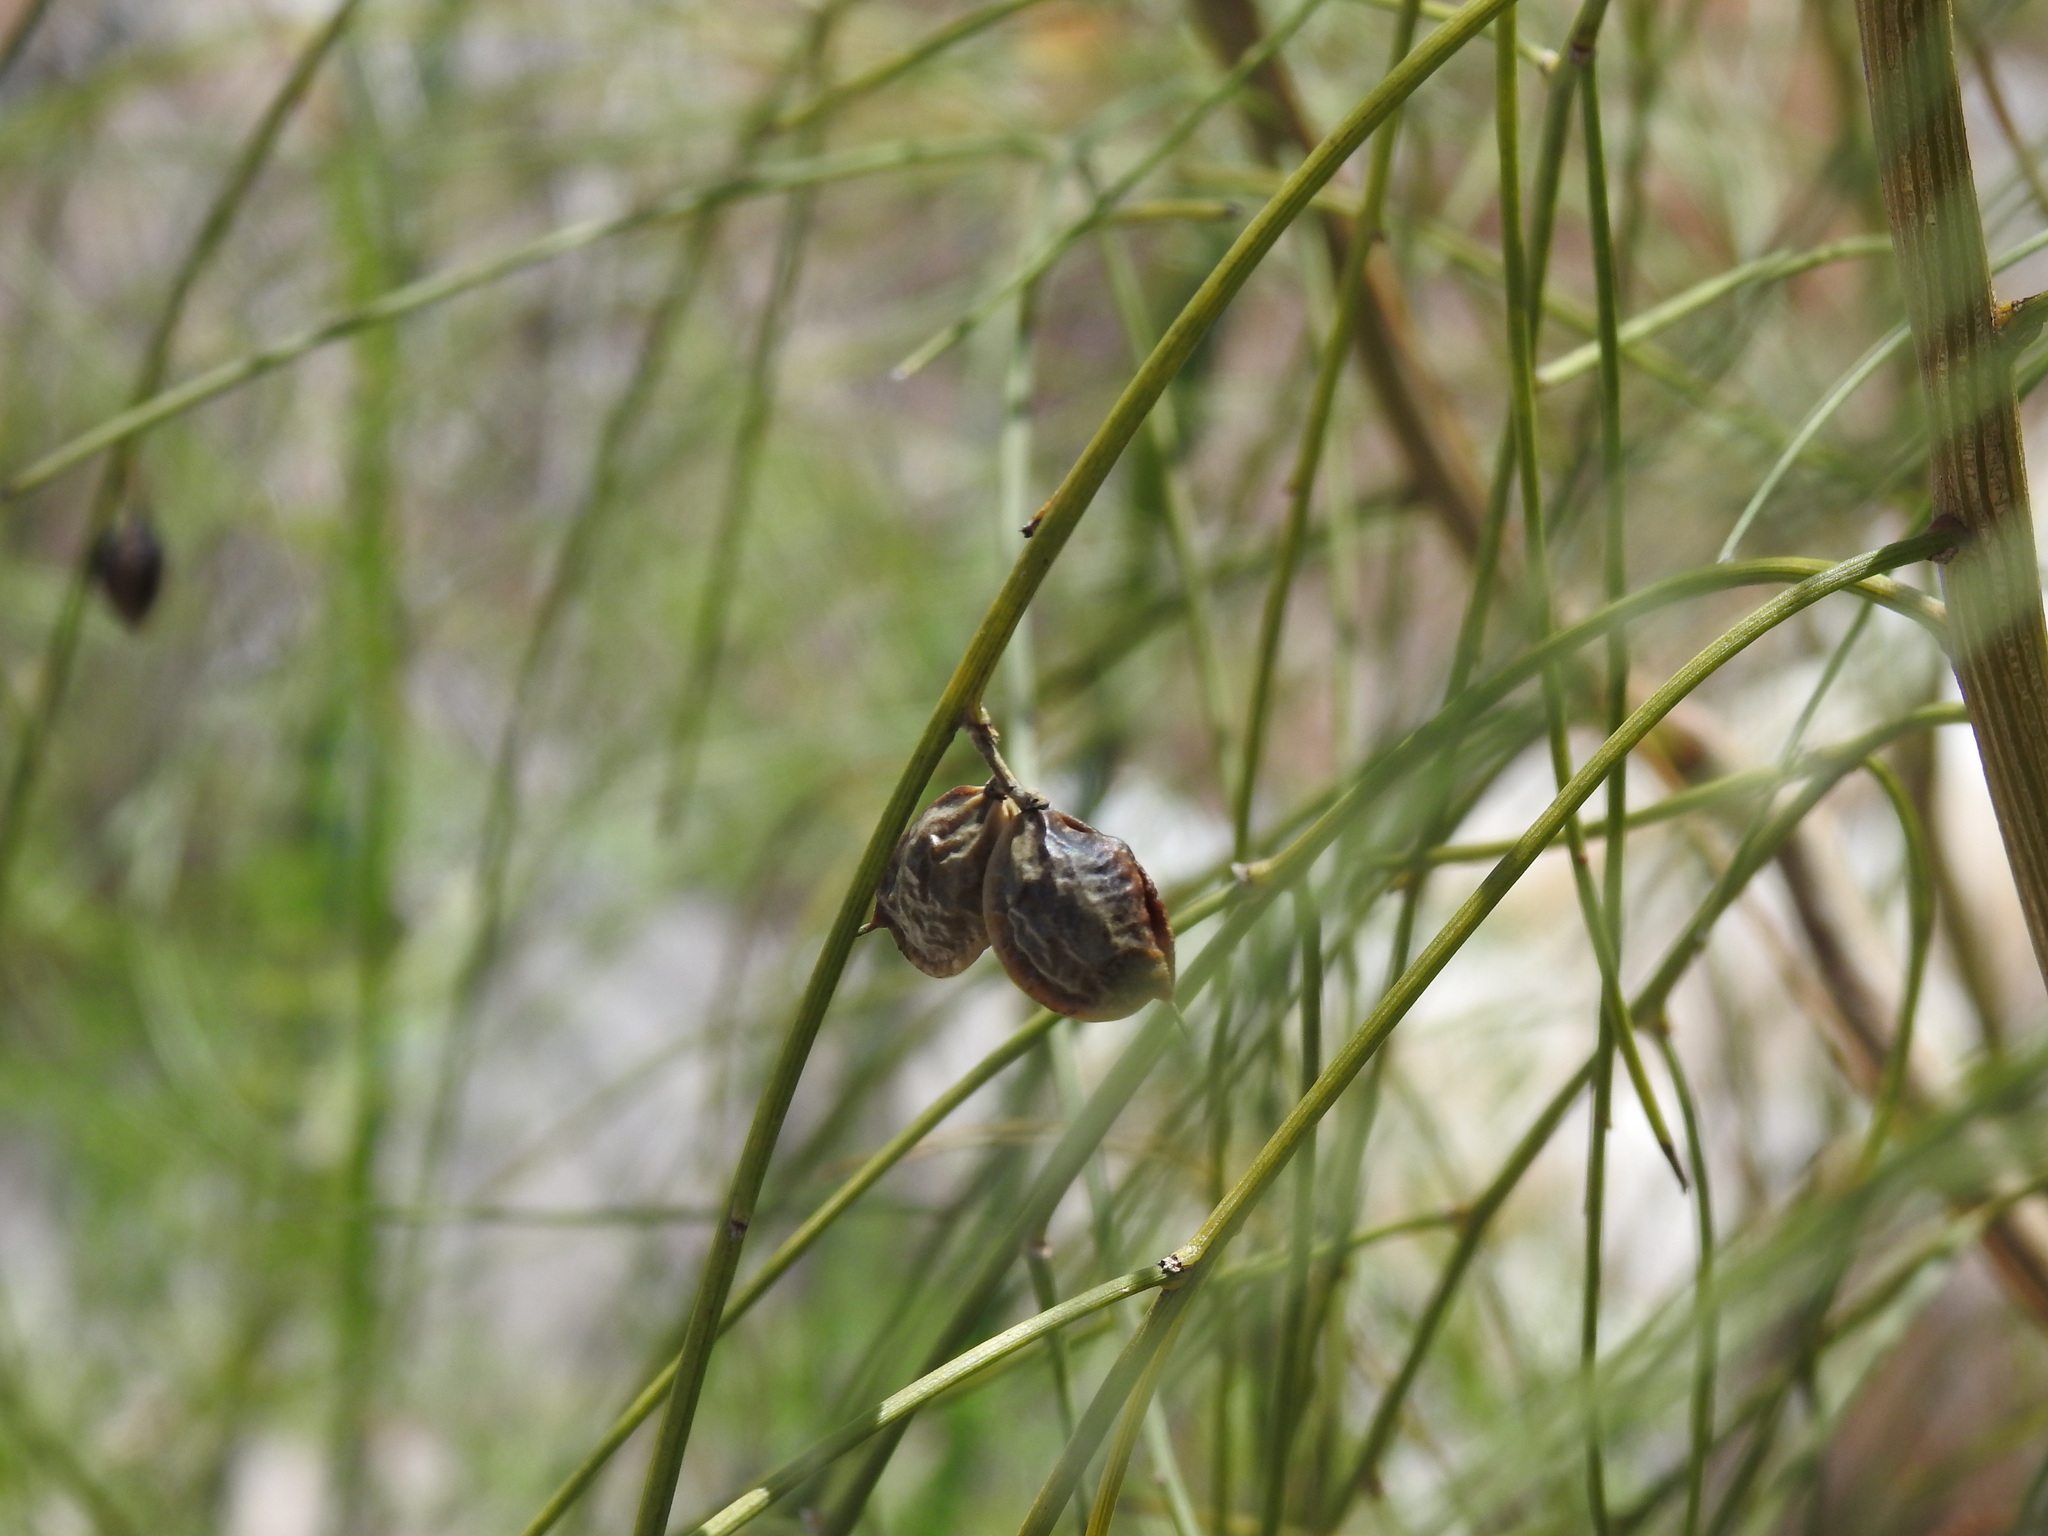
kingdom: Plantae
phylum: Tracheophyta
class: Magnoliopsida
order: Fabales
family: Fabaceae
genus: Retama
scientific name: Retama monosperma
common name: Bridal broom
